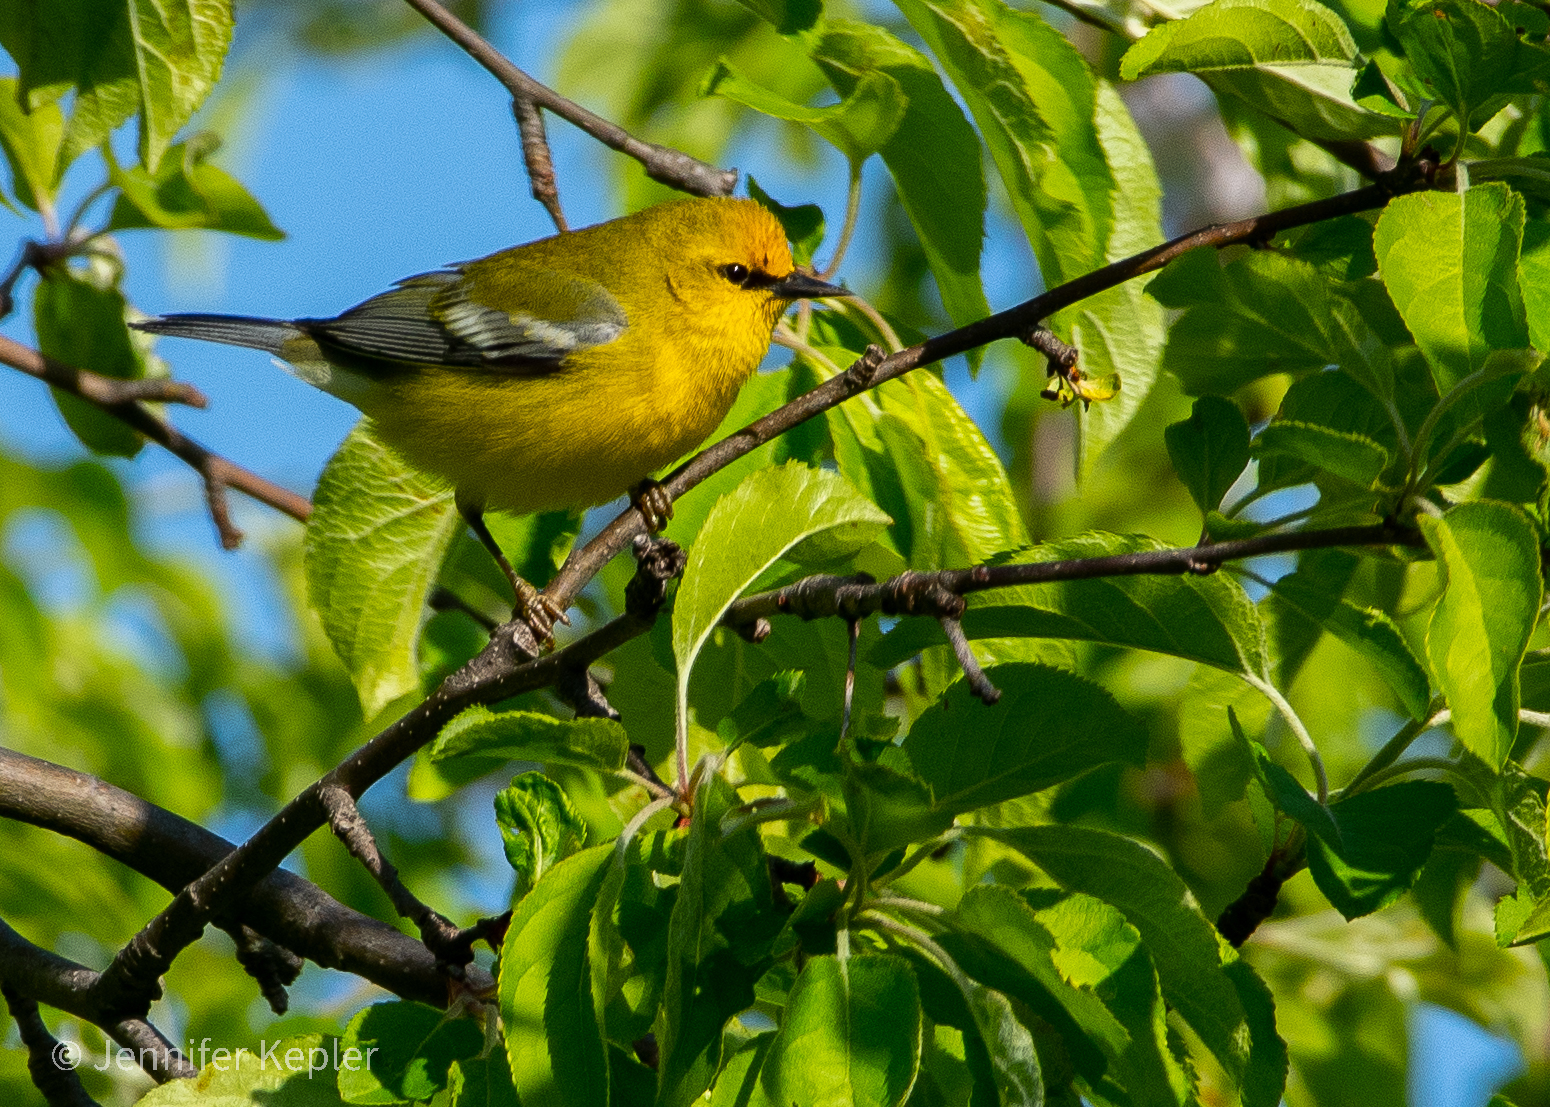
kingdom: Animalia
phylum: Chordata
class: Aves
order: Passeriformes
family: Parulidae
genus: Vermivora
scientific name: Vermivora cyanoptera
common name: Blue-winged warbler
